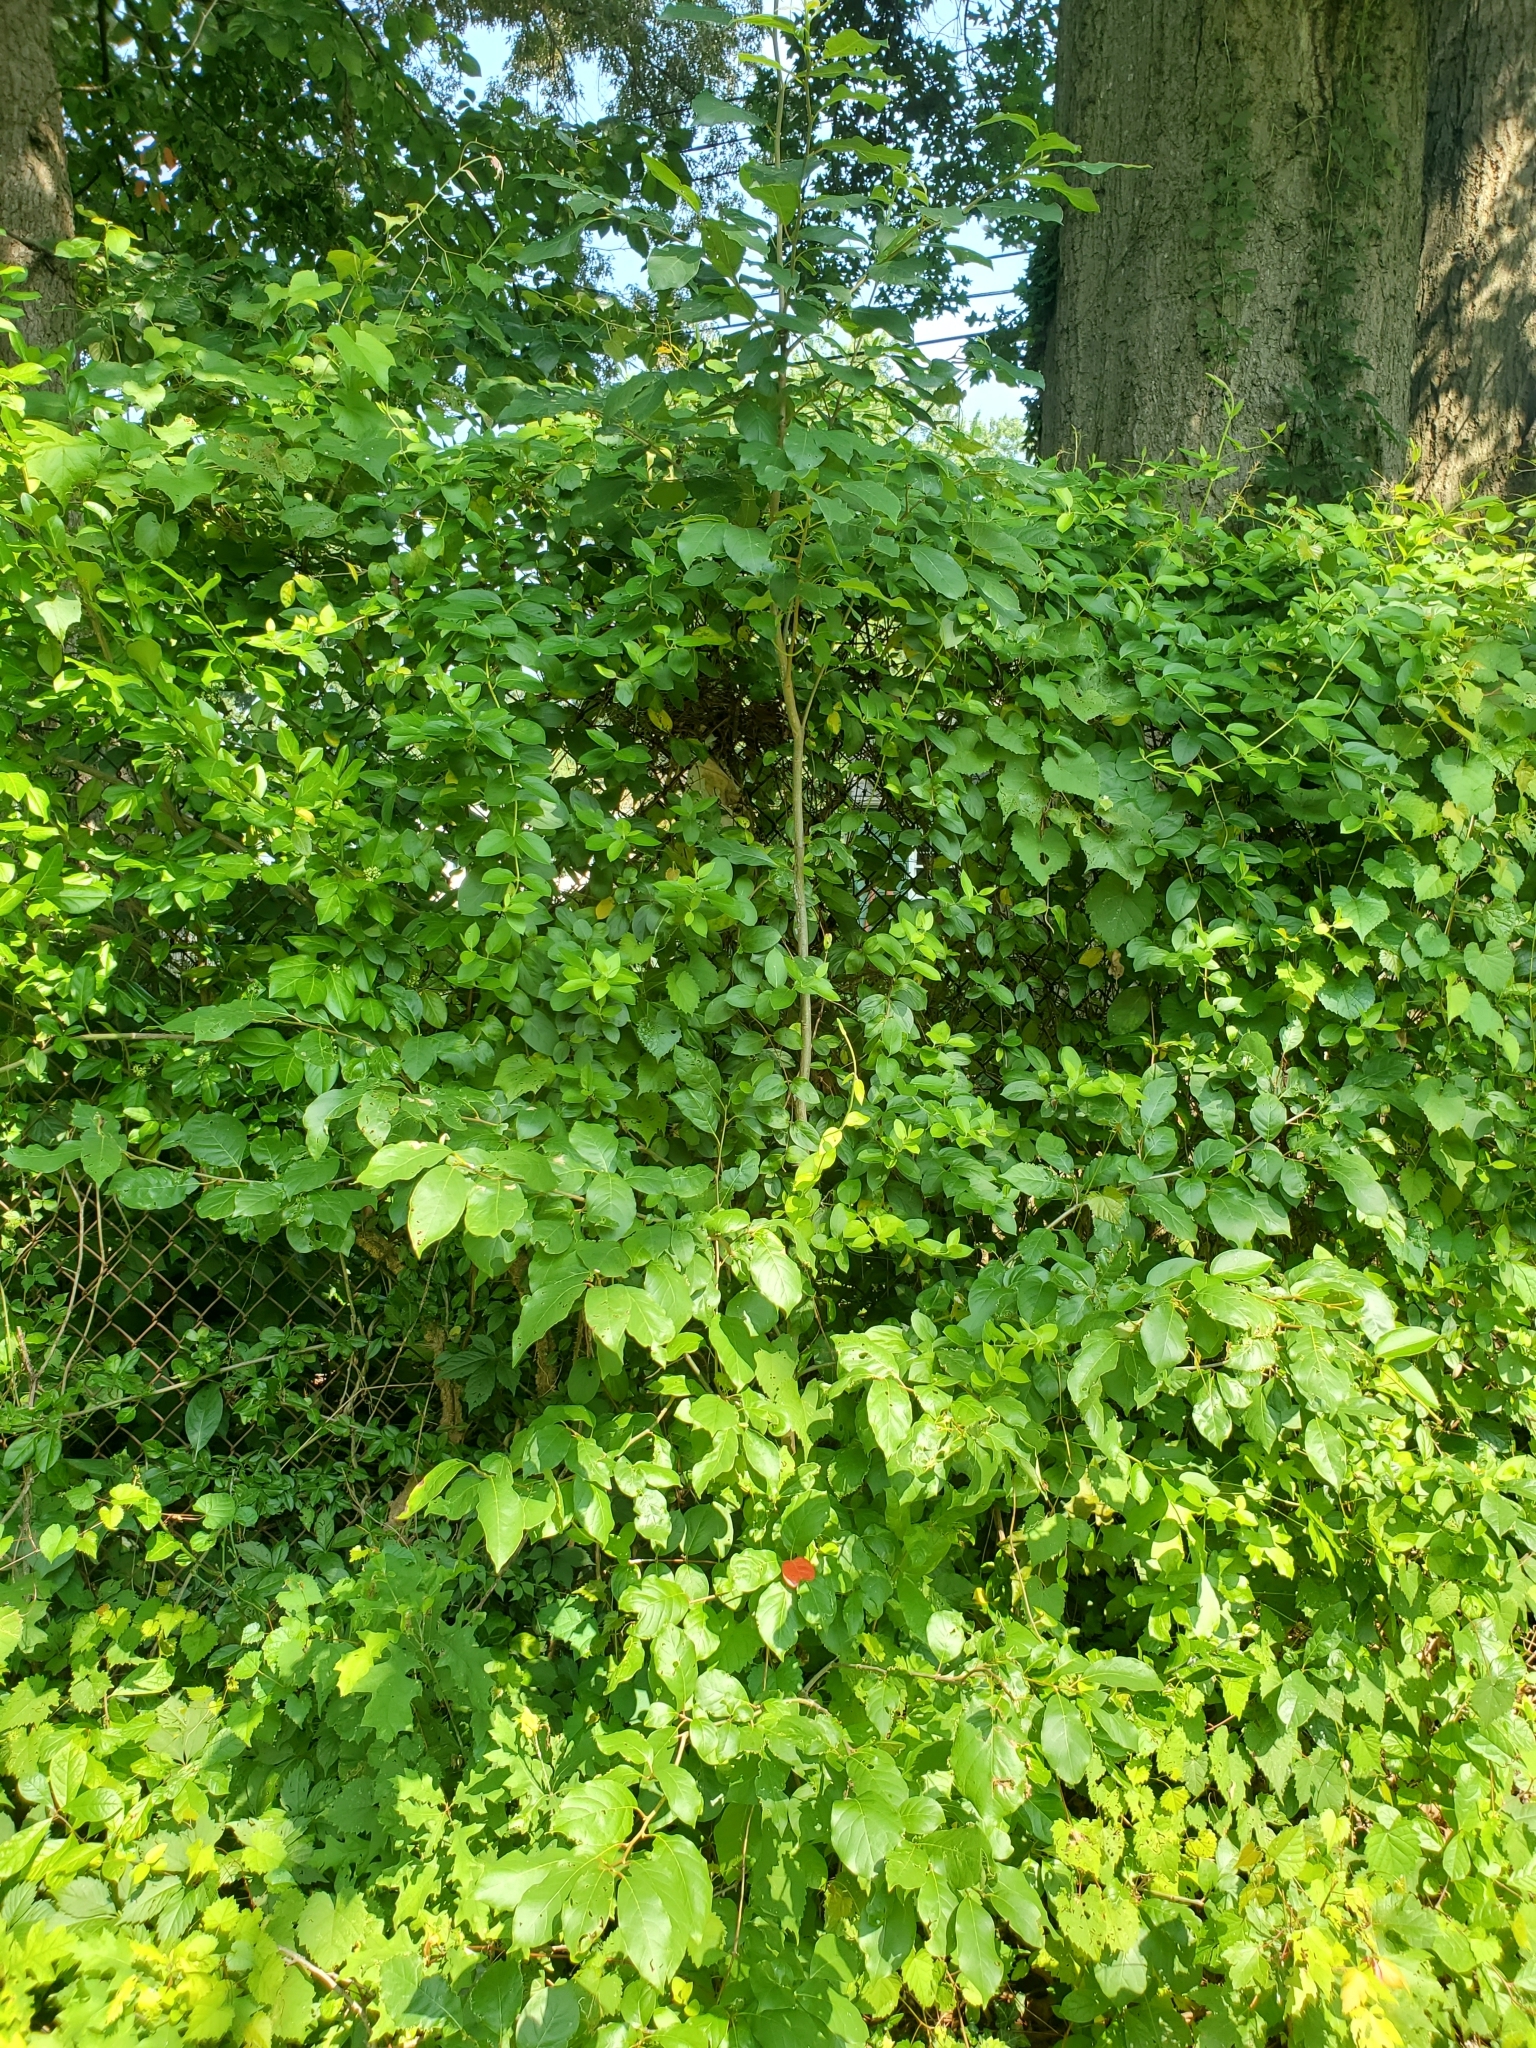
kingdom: Plantae
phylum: Tracheophyta
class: Magnoliopsida
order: Ericales
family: Ebenaceae
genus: Diospyros
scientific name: Diospyros virginiana
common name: Persimmon
